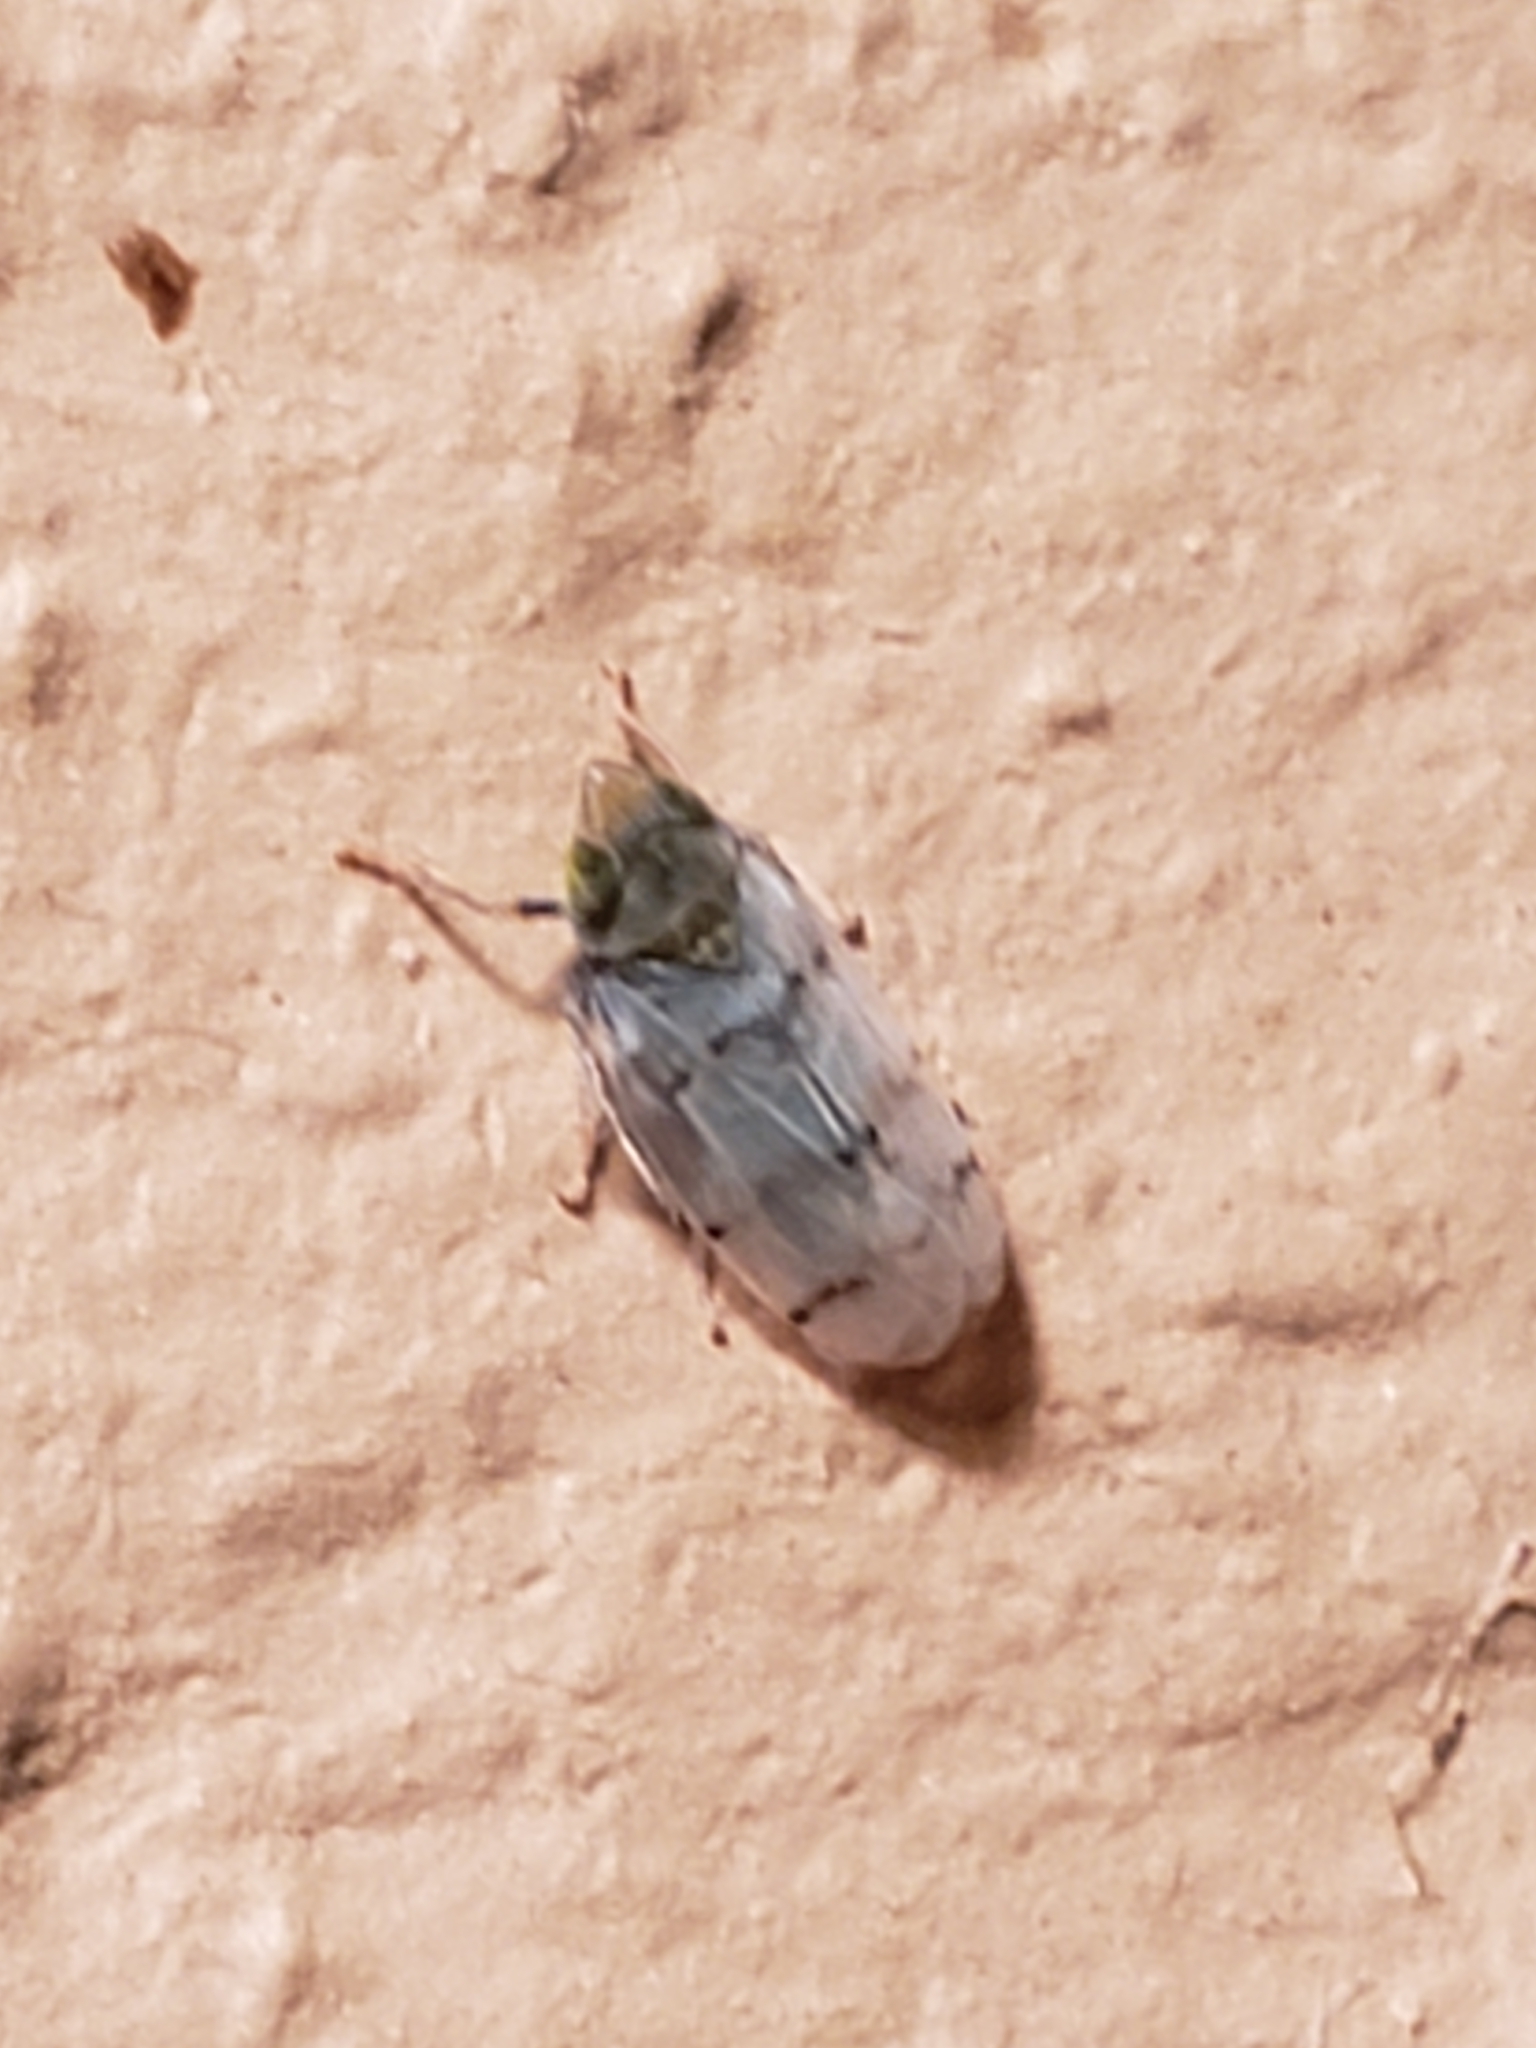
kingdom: Animalia
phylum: Arthropoda
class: Insecta
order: Hemiptera
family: Cicadellidae
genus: Japananus
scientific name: Japananus hyalinus
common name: The japanese maple leafhopper
